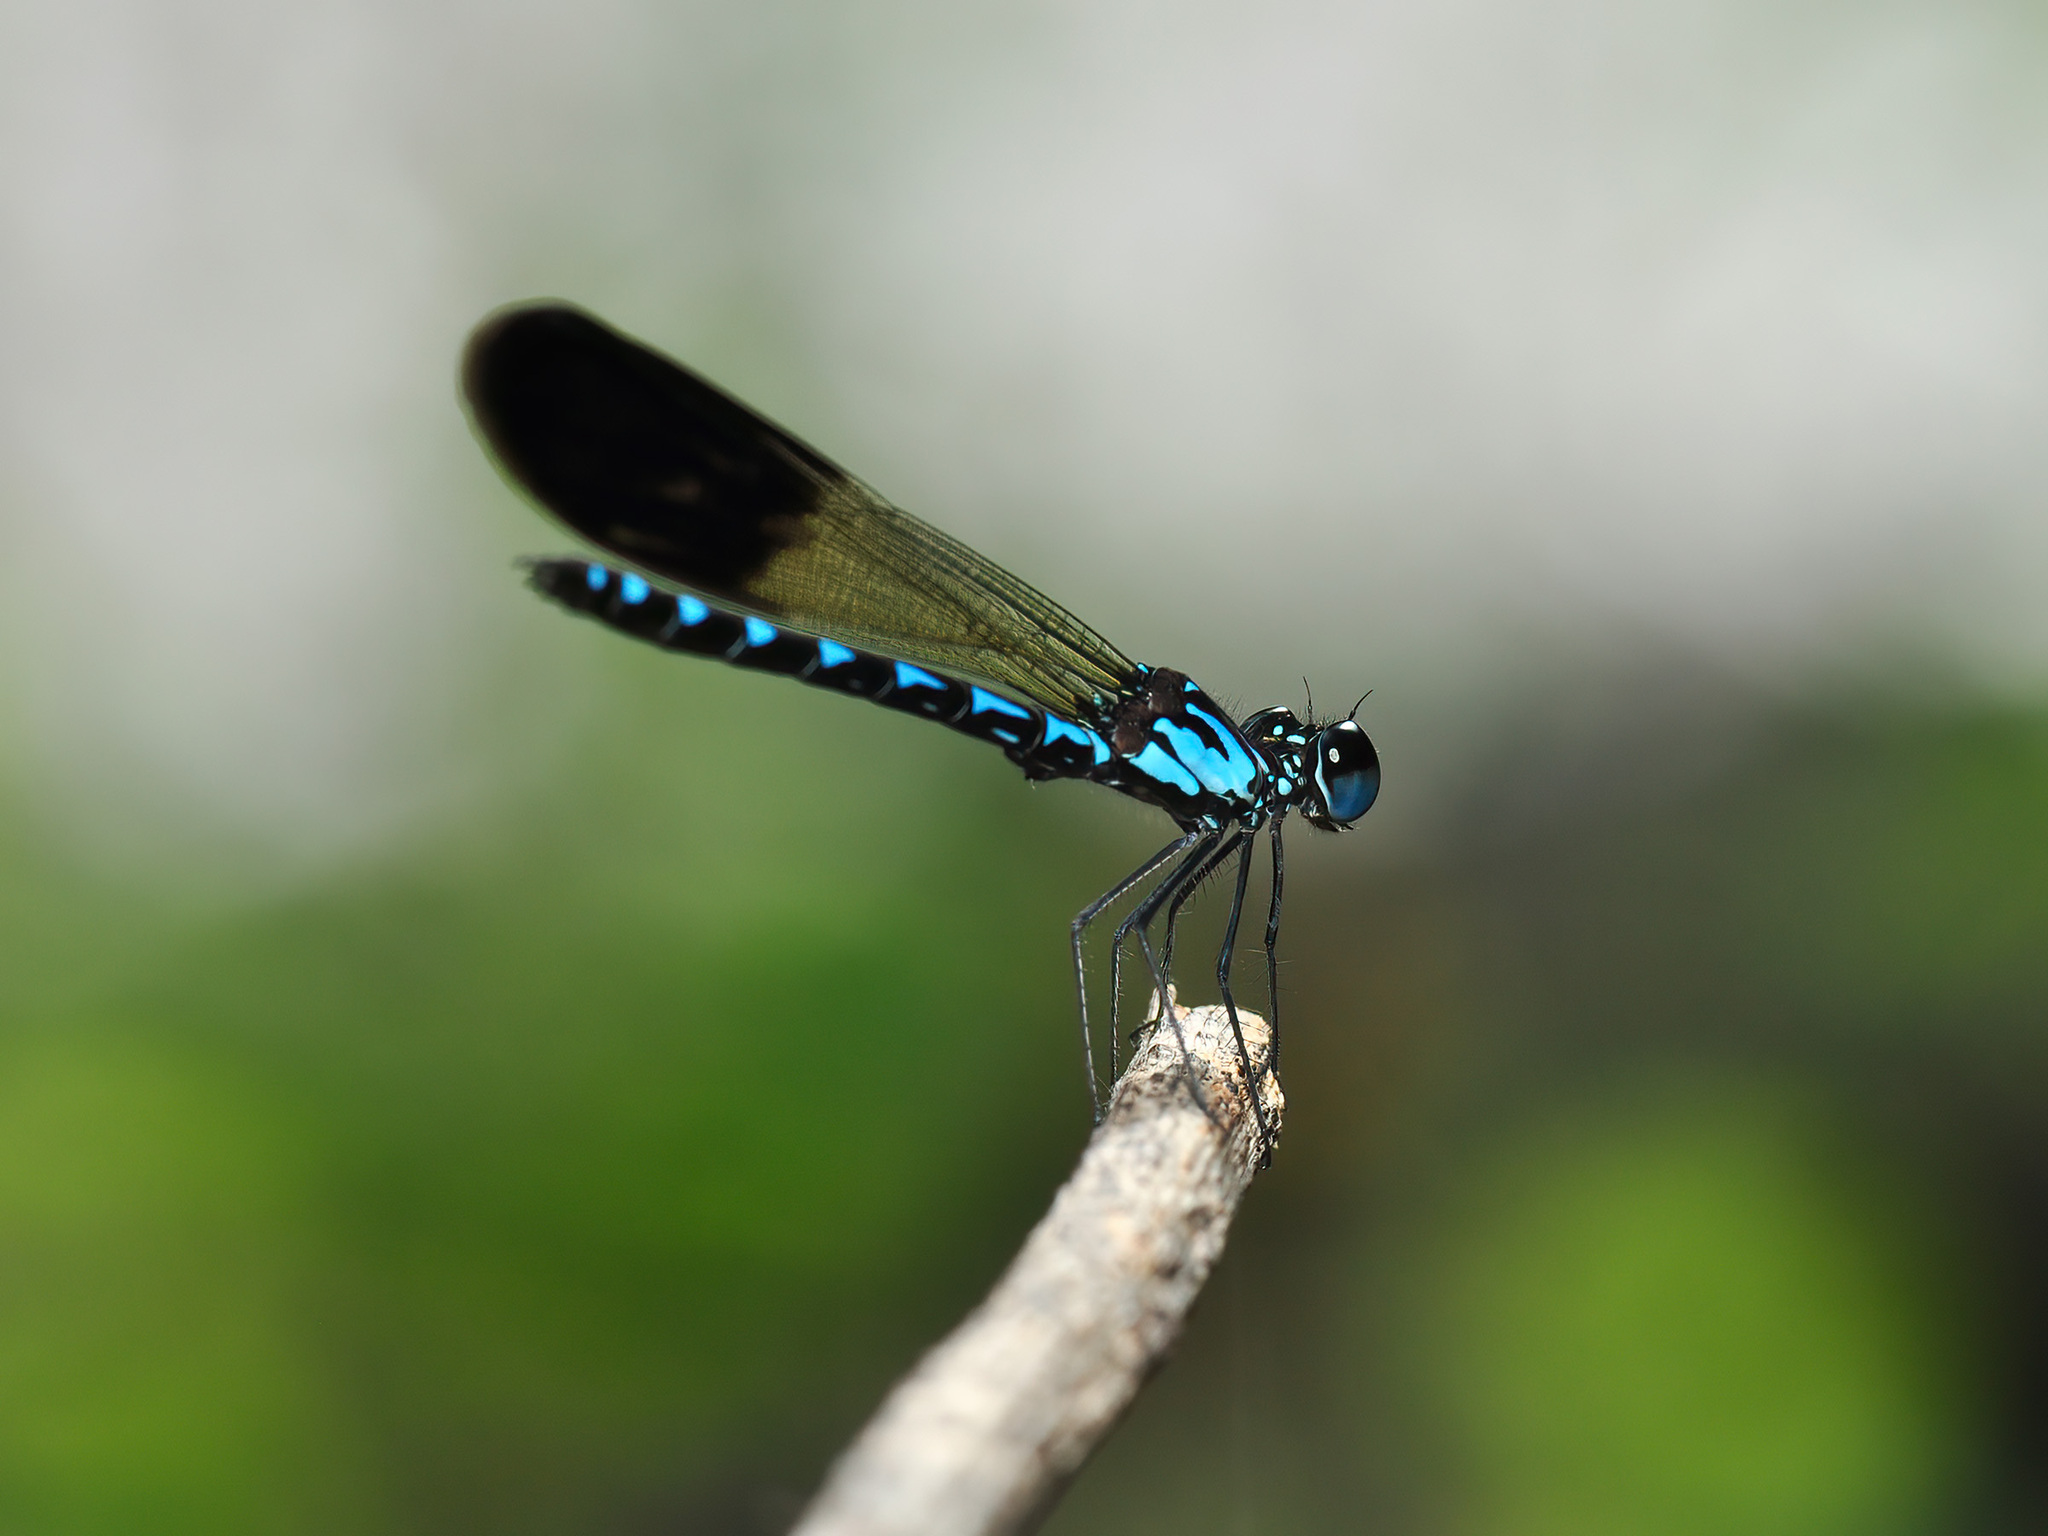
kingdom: Animalia
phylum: Arthropoda
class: Insecta
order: Odonata
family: Chlorocyphidae
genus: Heliocypha
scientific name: Heliocypha perforata
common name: Common blue jewel
